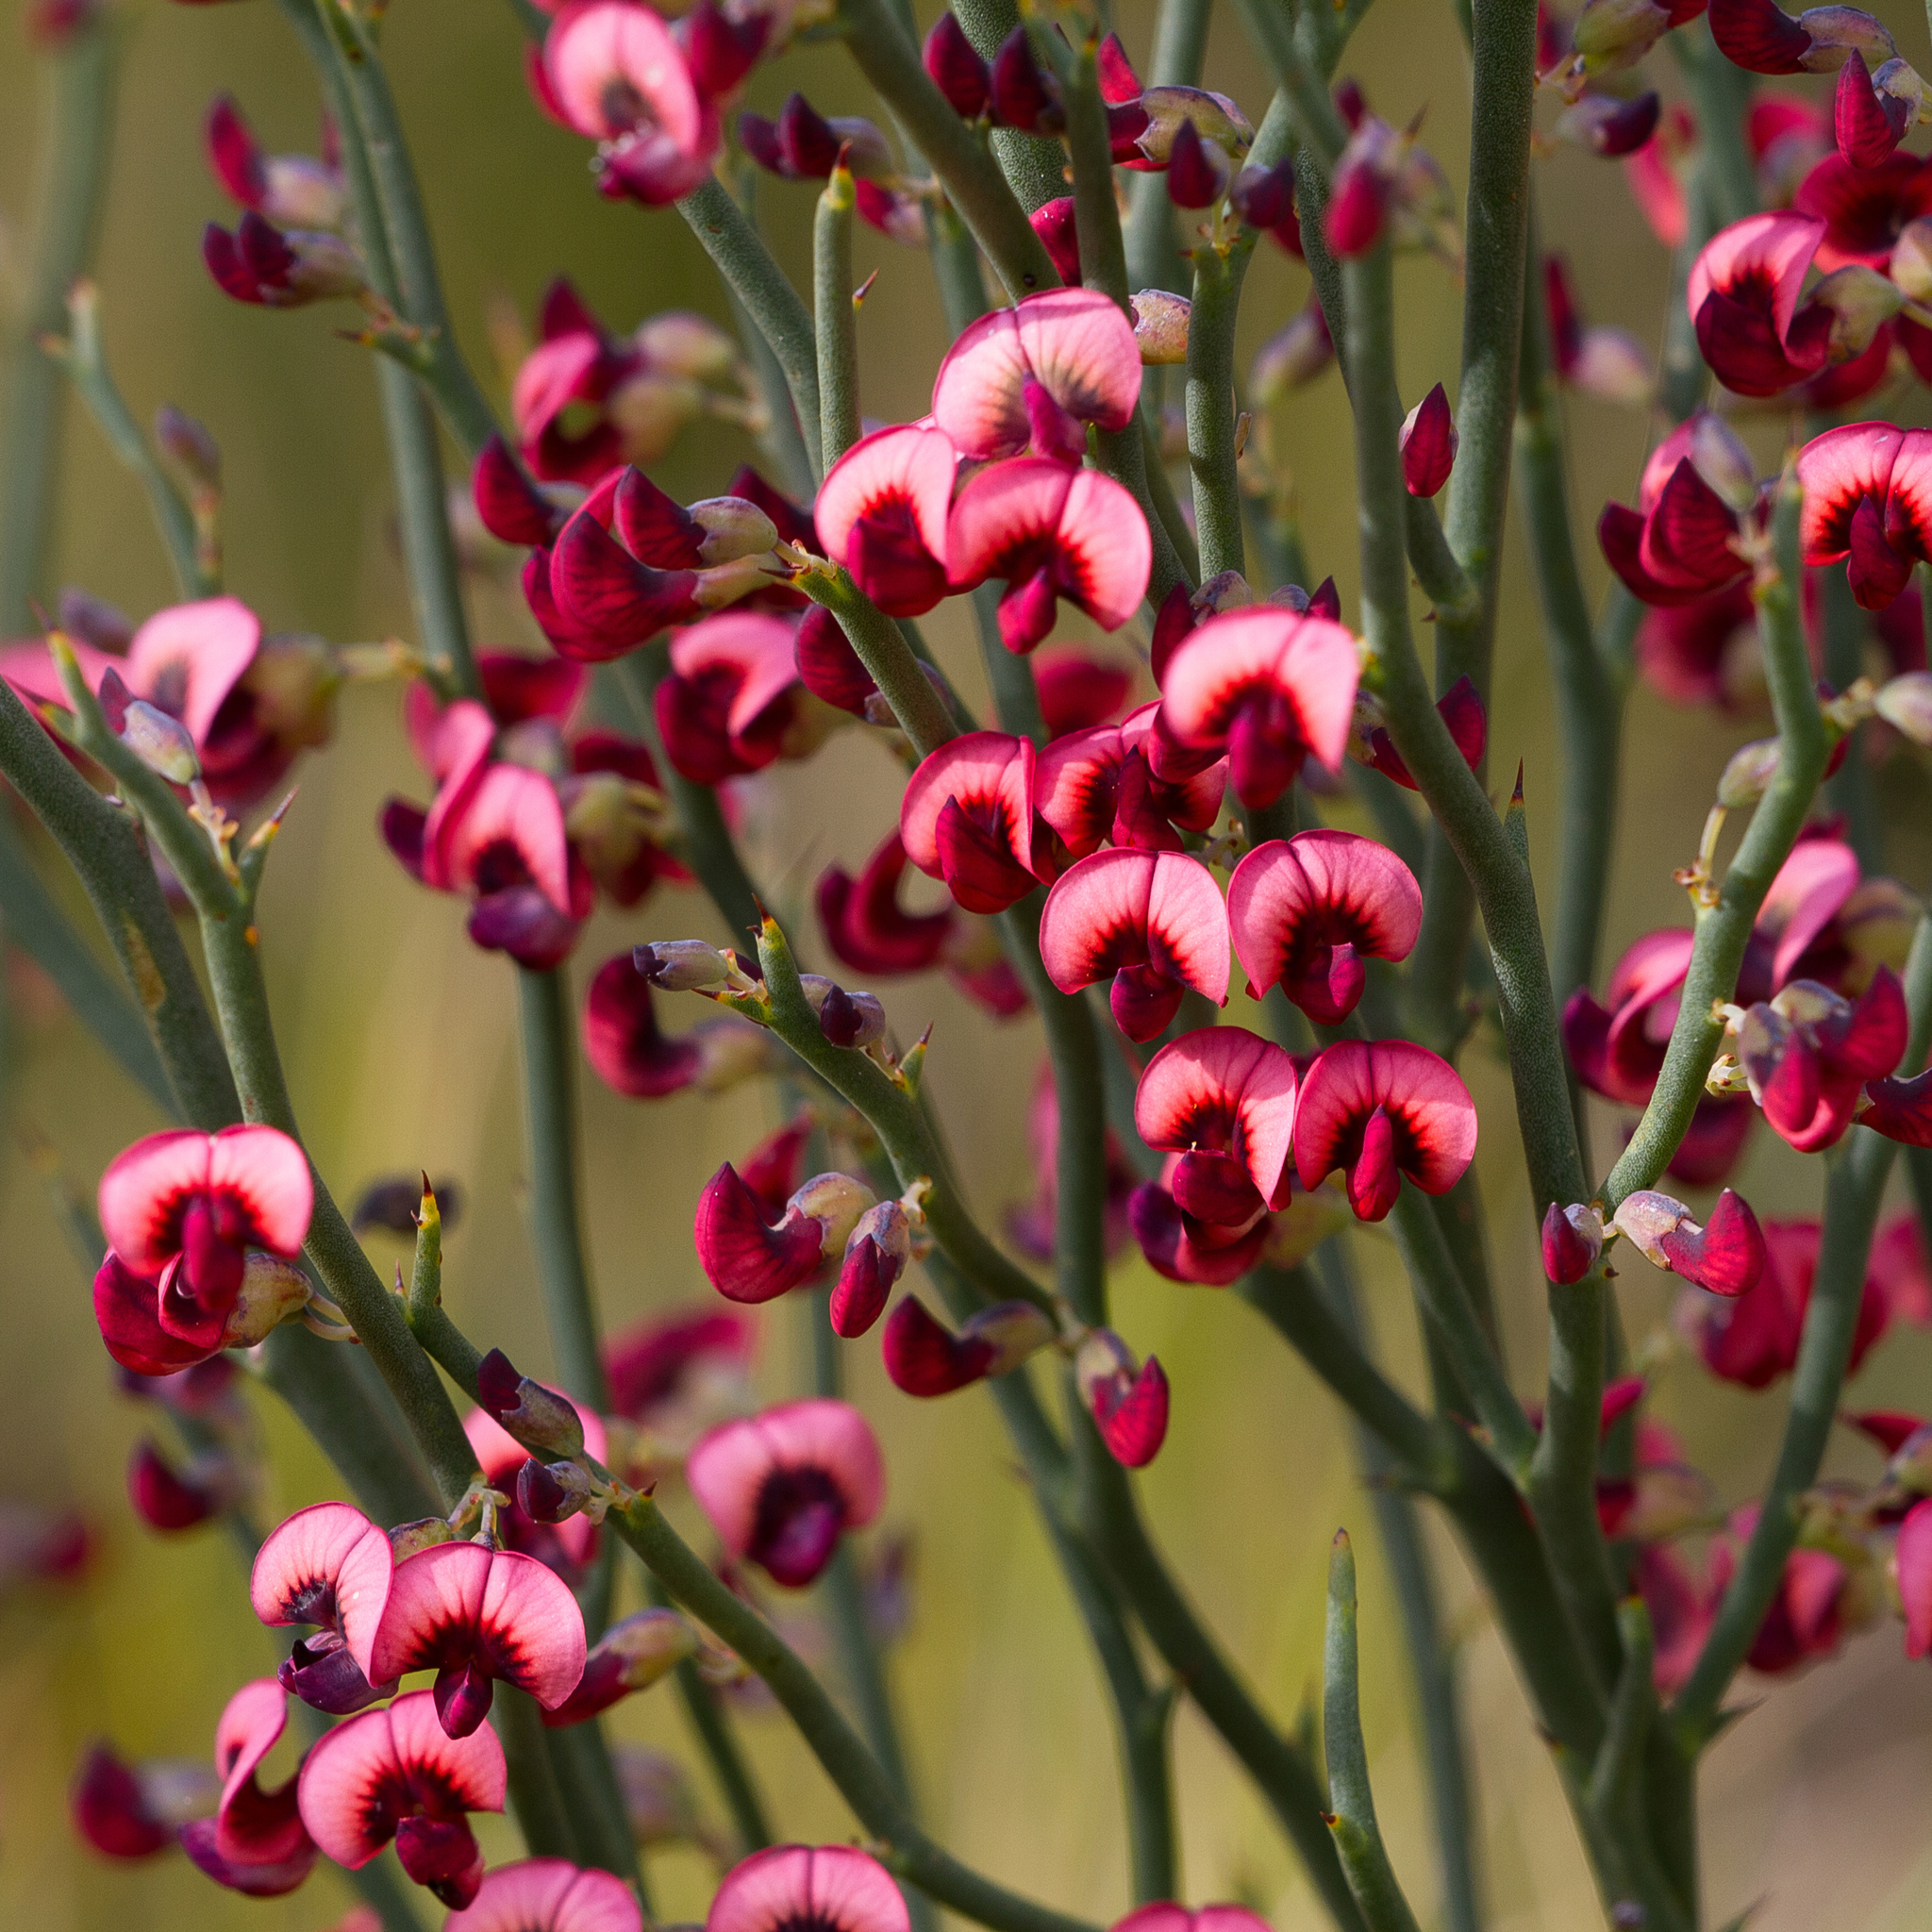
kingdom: Plantae
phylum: Tracheophyta
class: Magnoliopsida
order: Fabales
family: Fabaceae
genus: Daviesia
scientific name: Daviesia brevifolia
